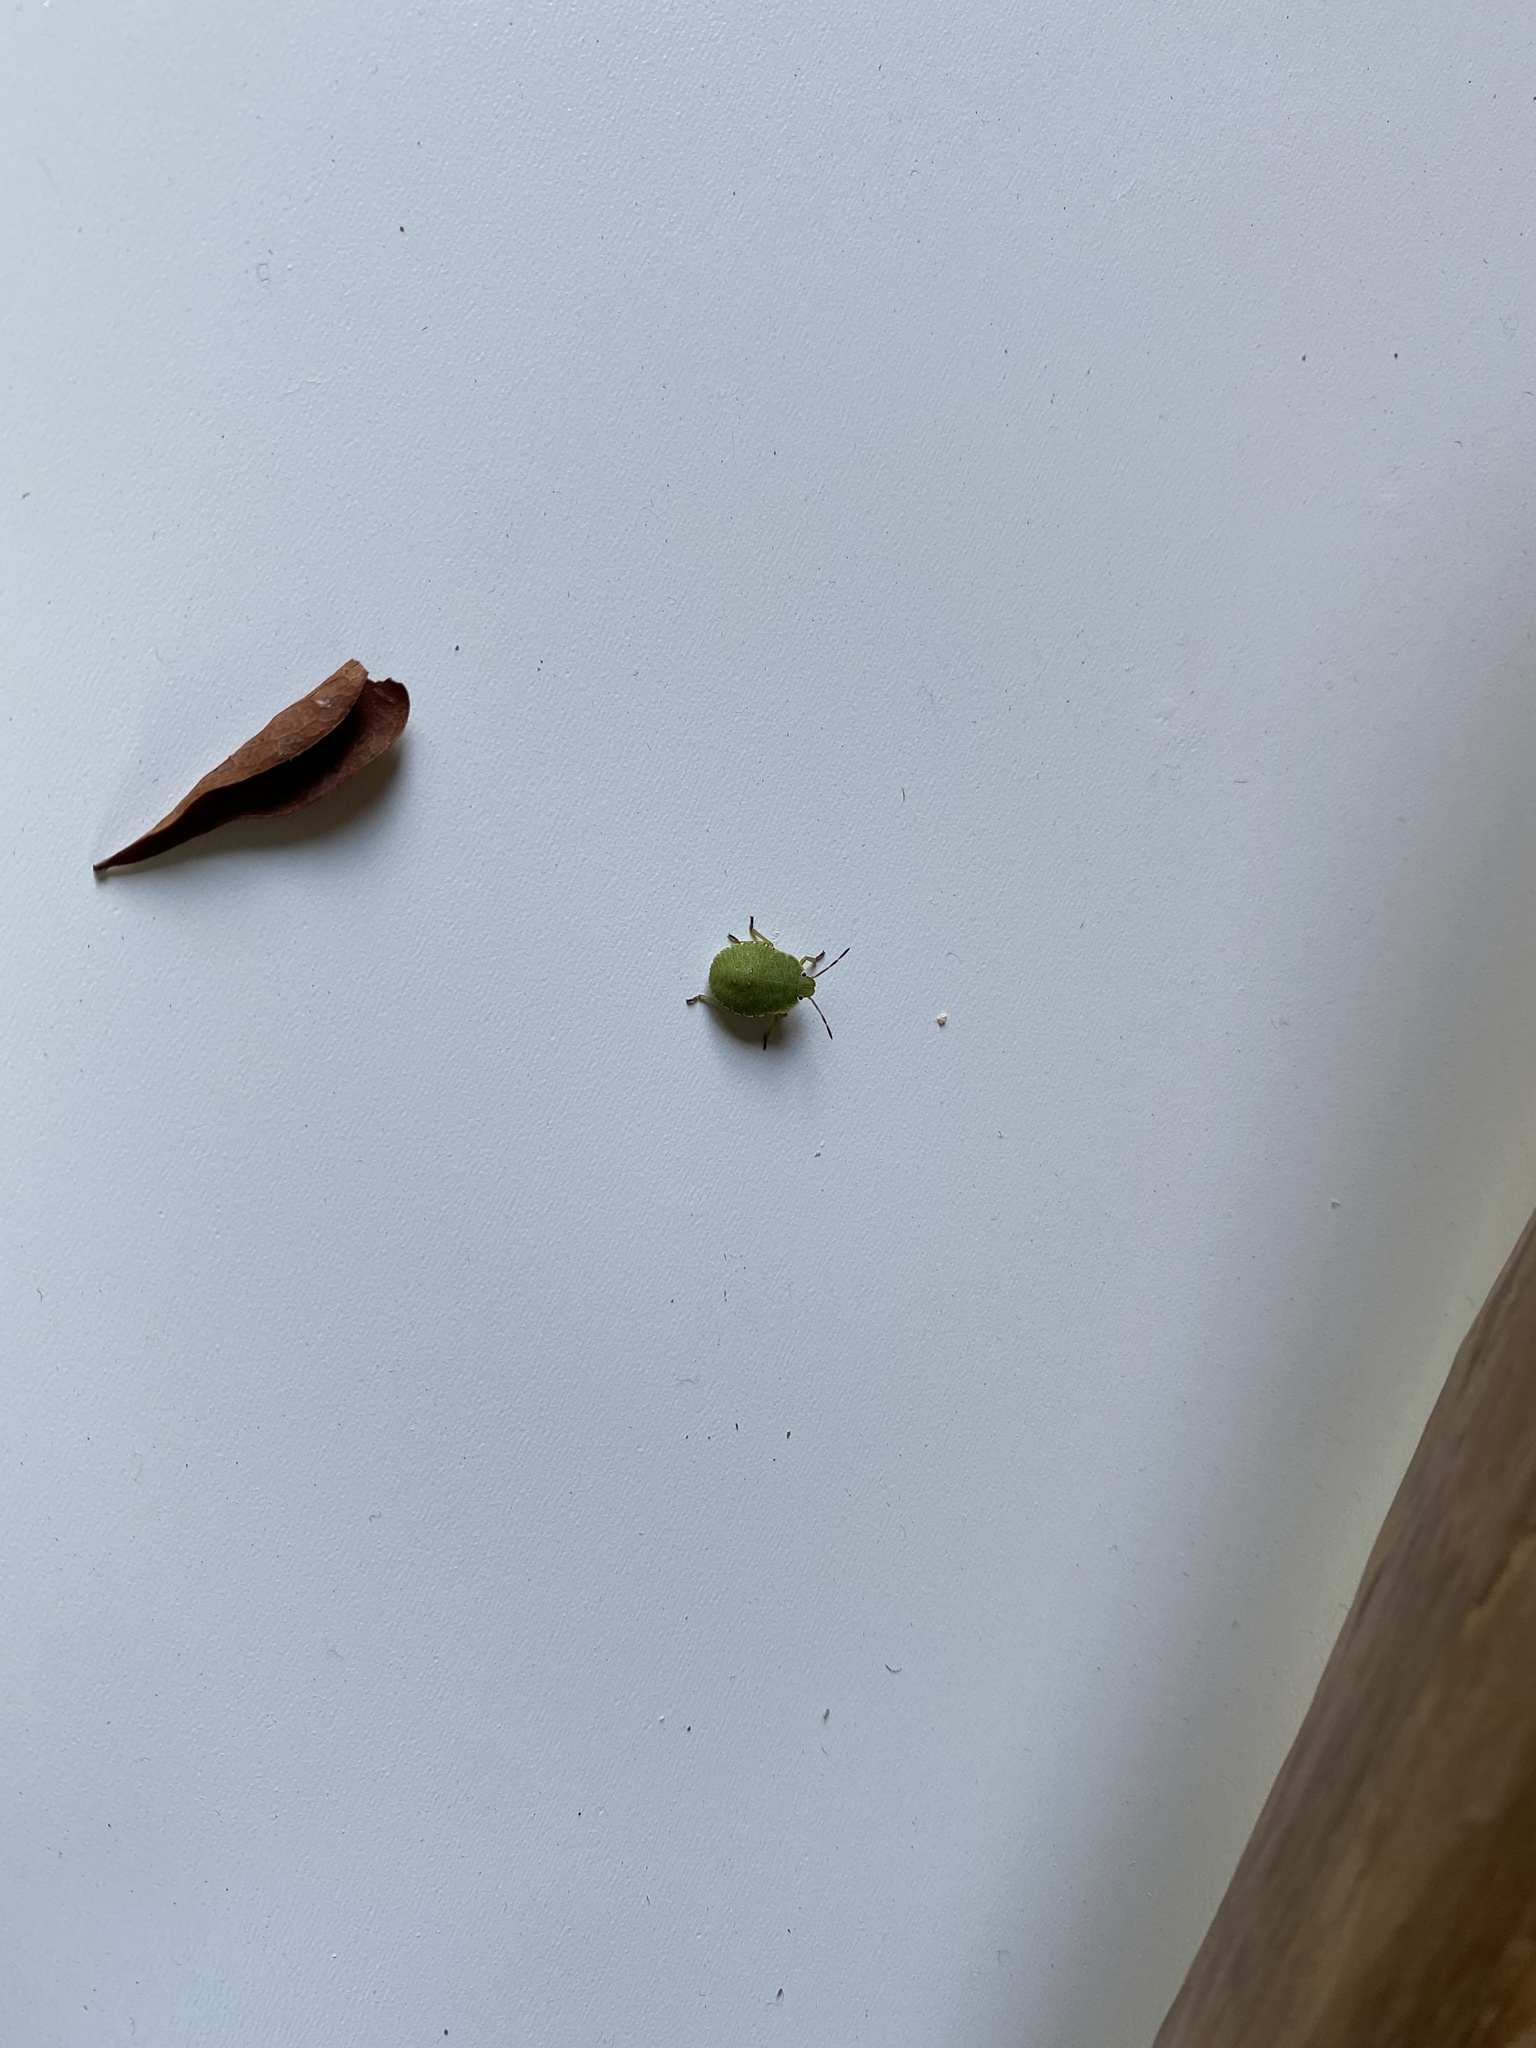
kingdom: Animalia
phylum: Arthropoda
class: Insecta
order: Hemiptera
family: Pentatomidae
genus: Palomena
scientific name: Palomena prasina
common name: Green shieldbug
